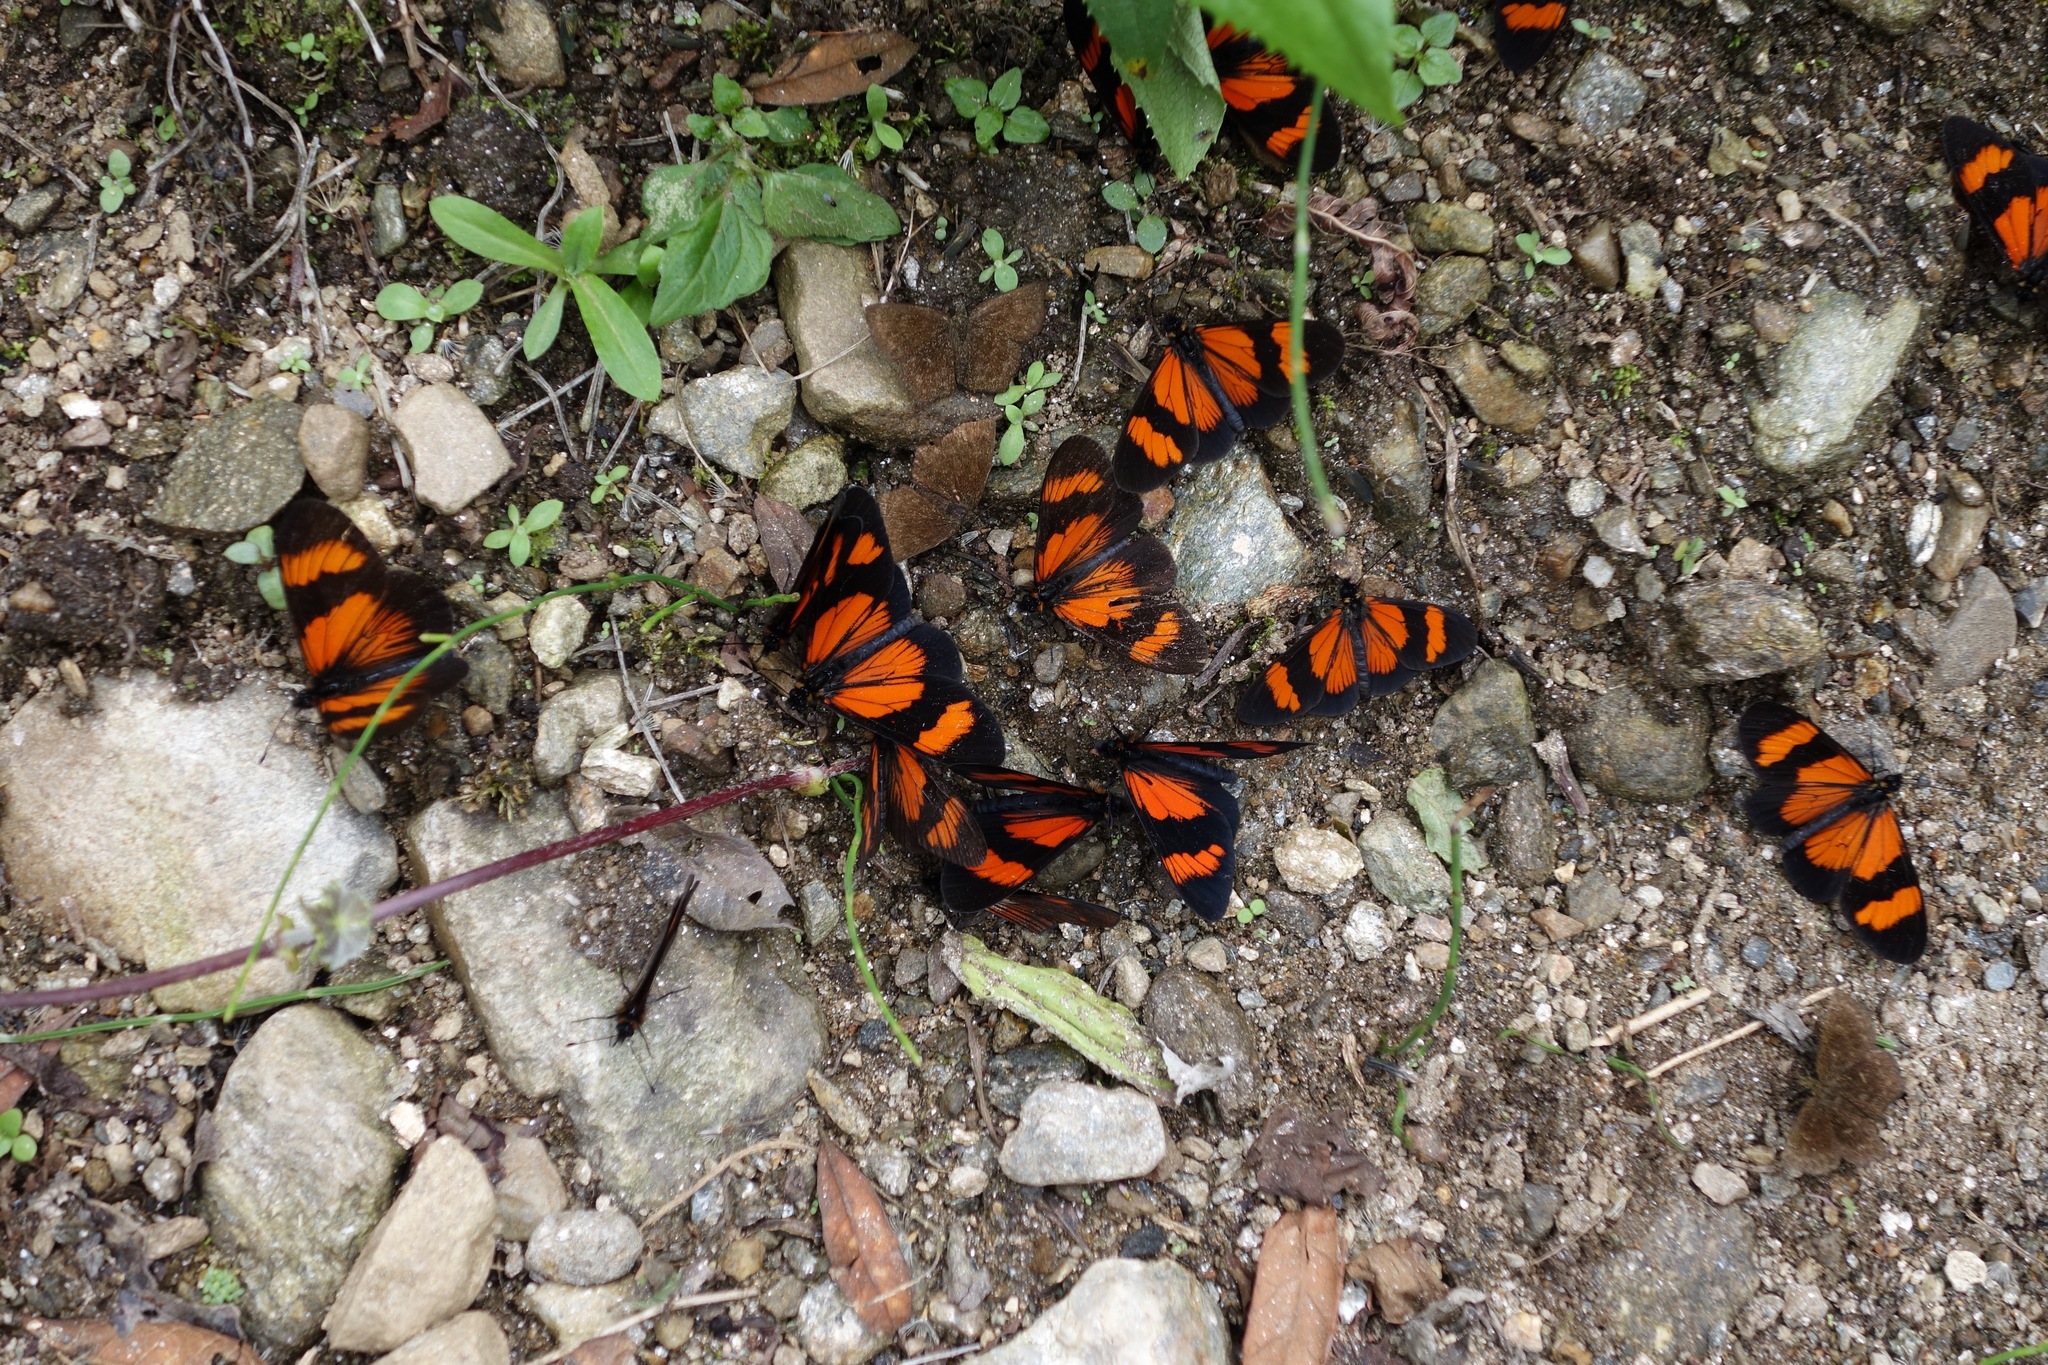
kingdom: Animalia
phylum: Arthropoda
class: Insecta
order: Lepidoptera
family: Nymphalidae
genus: Actinote
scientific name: Actinote negra
